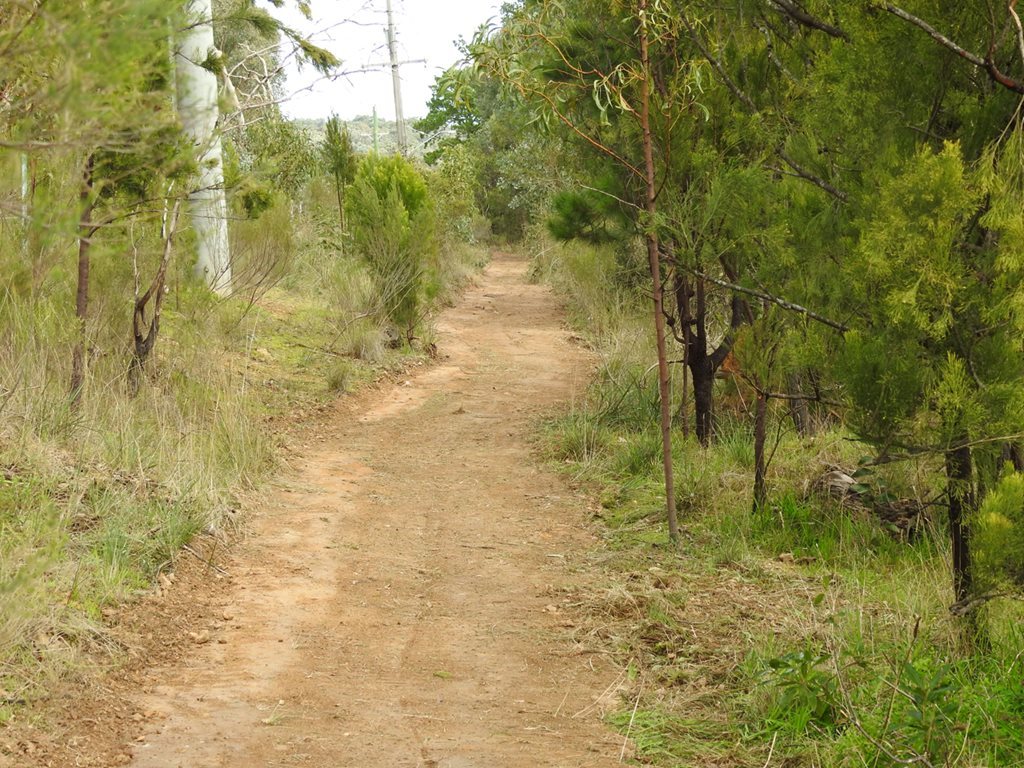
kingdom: Plantae
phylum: Tracheophyta
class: Magnoliopsida
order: Fabales
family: Polygalaceae
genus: Comesperma
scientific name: Comesperma volubile
